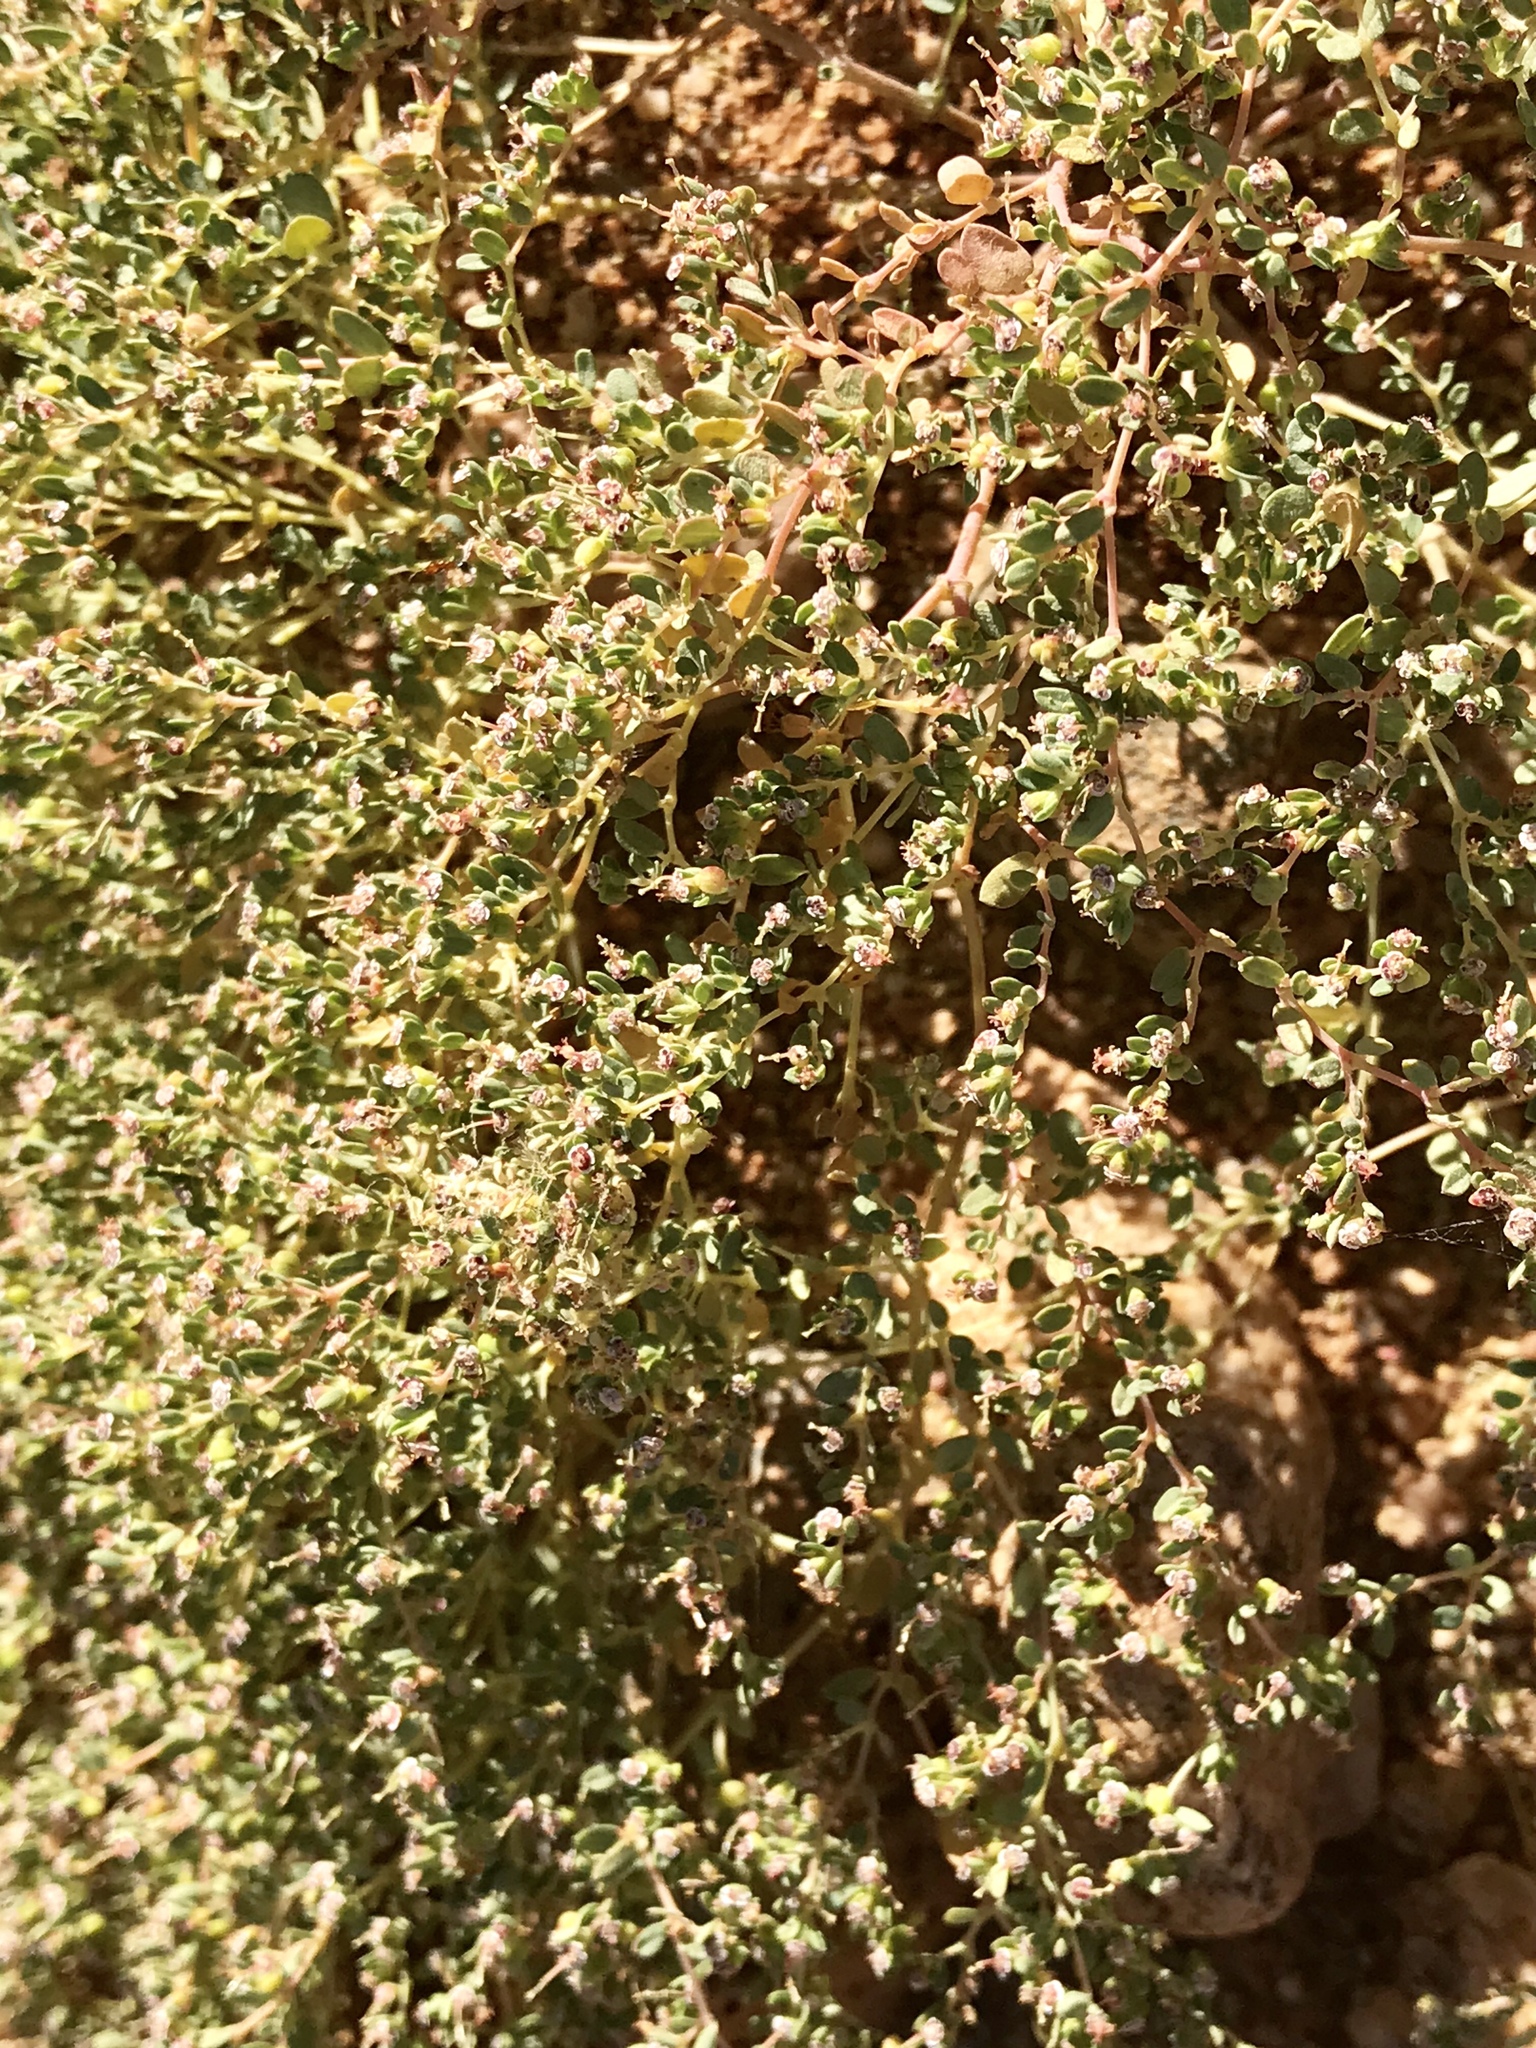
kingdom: Plantae
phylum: Tracheophyta
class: Magnoliopsida
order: Malpighiales
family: Euphorbiaceae
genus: Euphorbia
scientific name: Euphorbia polycarpa
